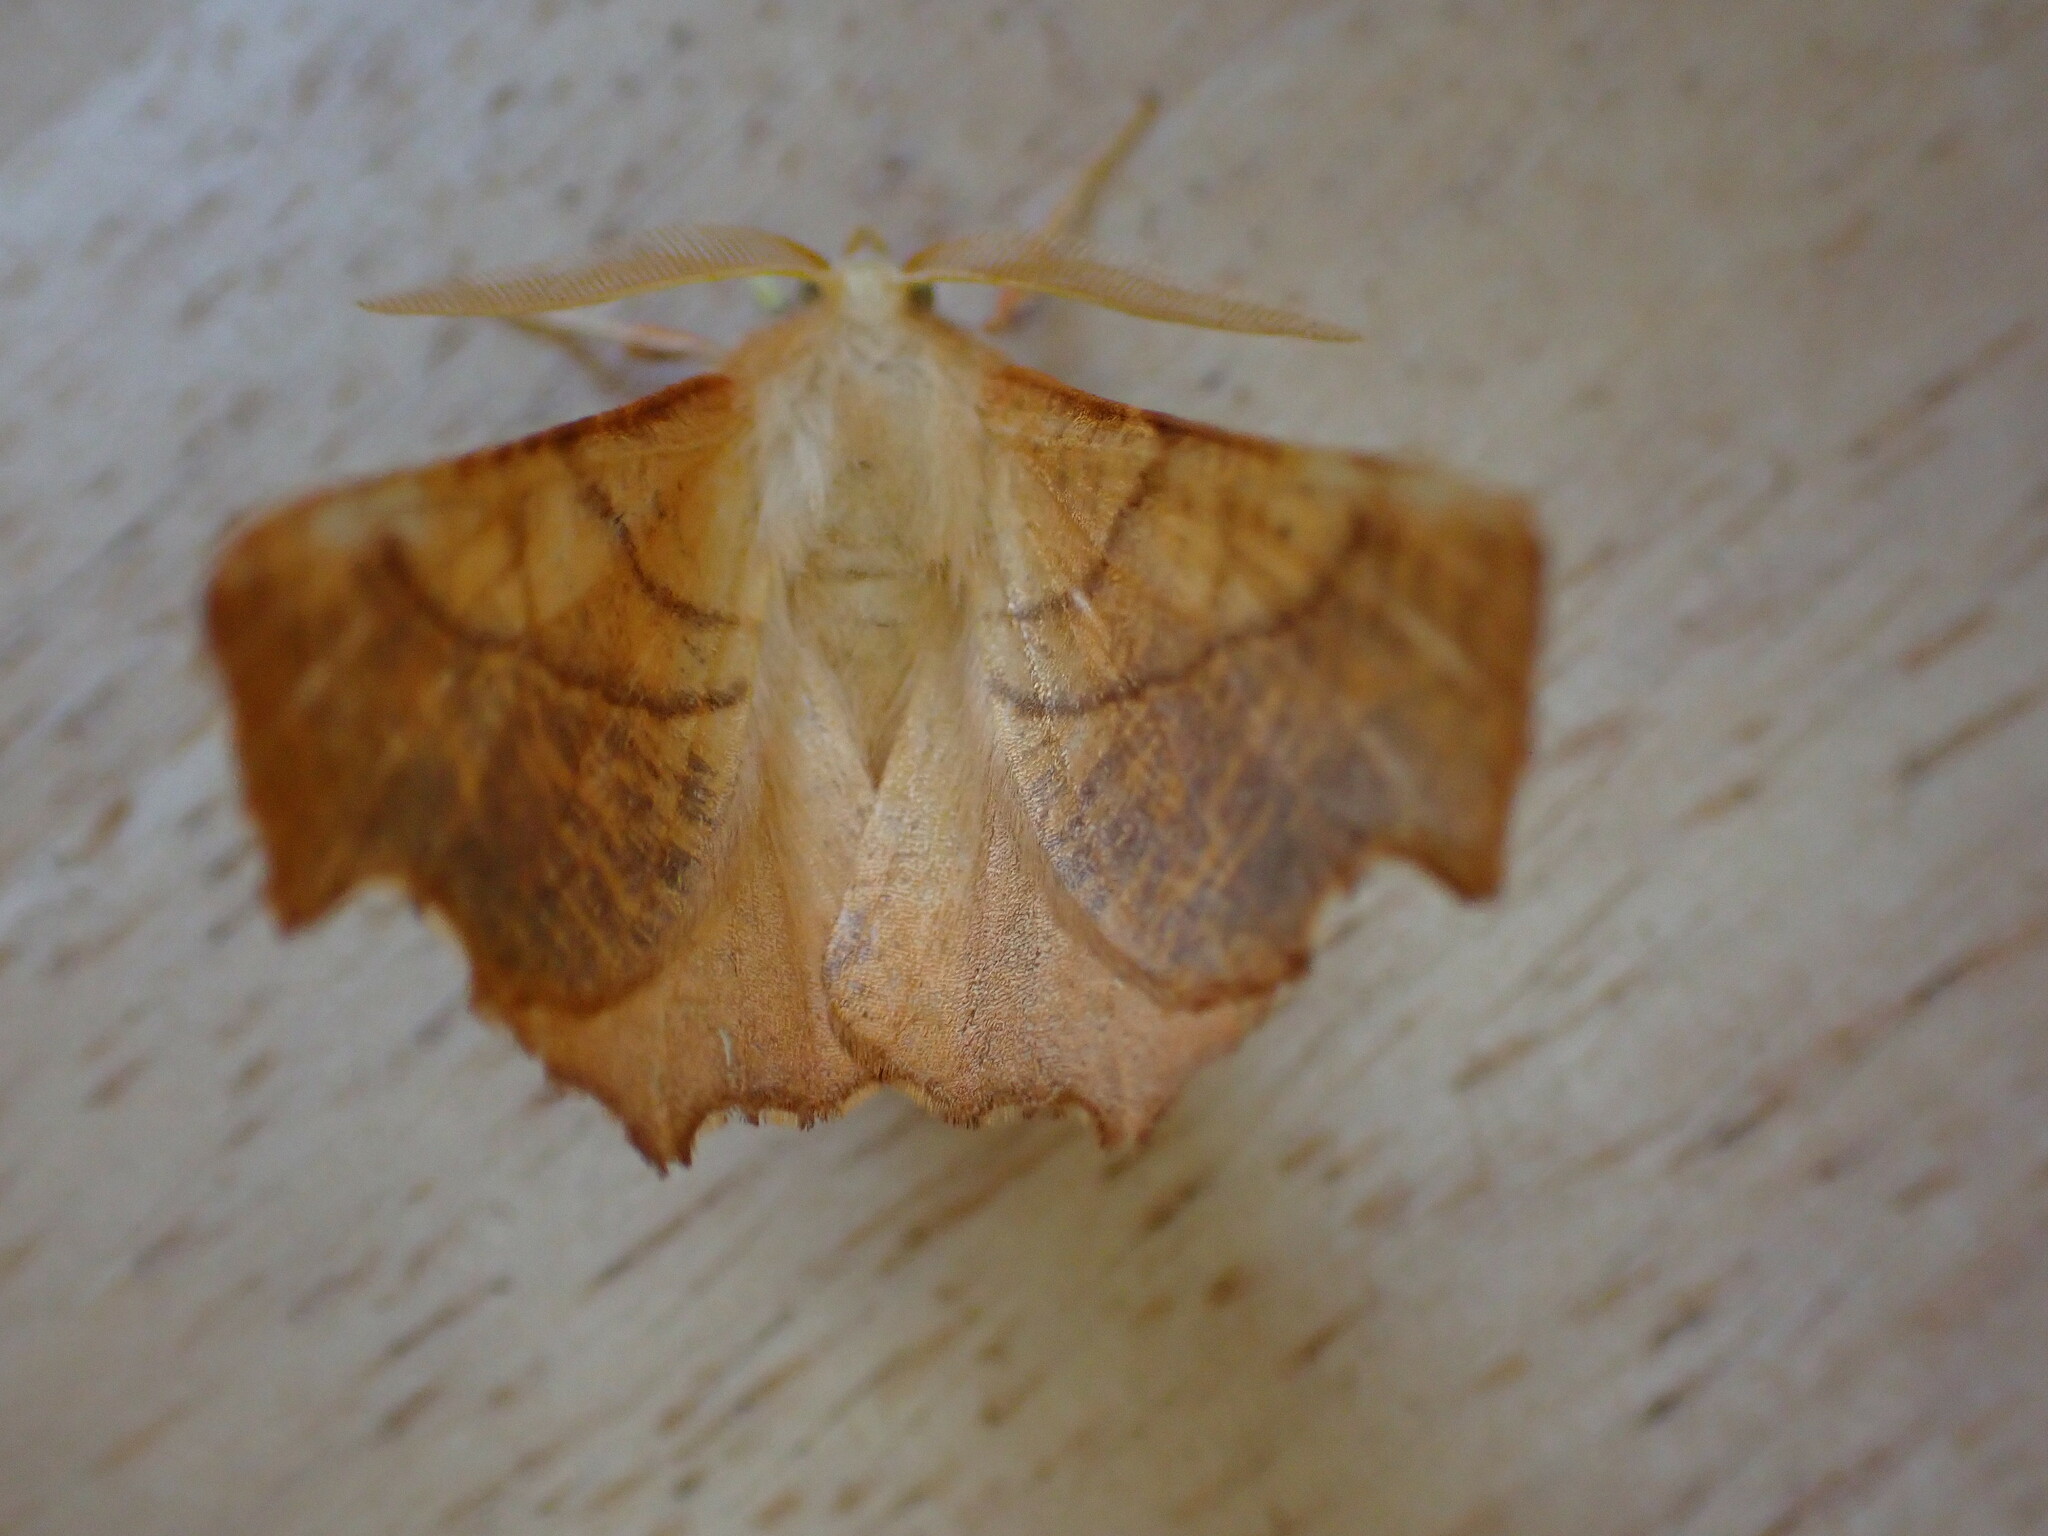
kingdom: Animalia
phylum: Arthropoda
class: Insecta
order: Lepidoptera
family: Geometridae
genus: Ennomos
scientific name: Ennomos fuscantaria
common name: Dusky thorn
